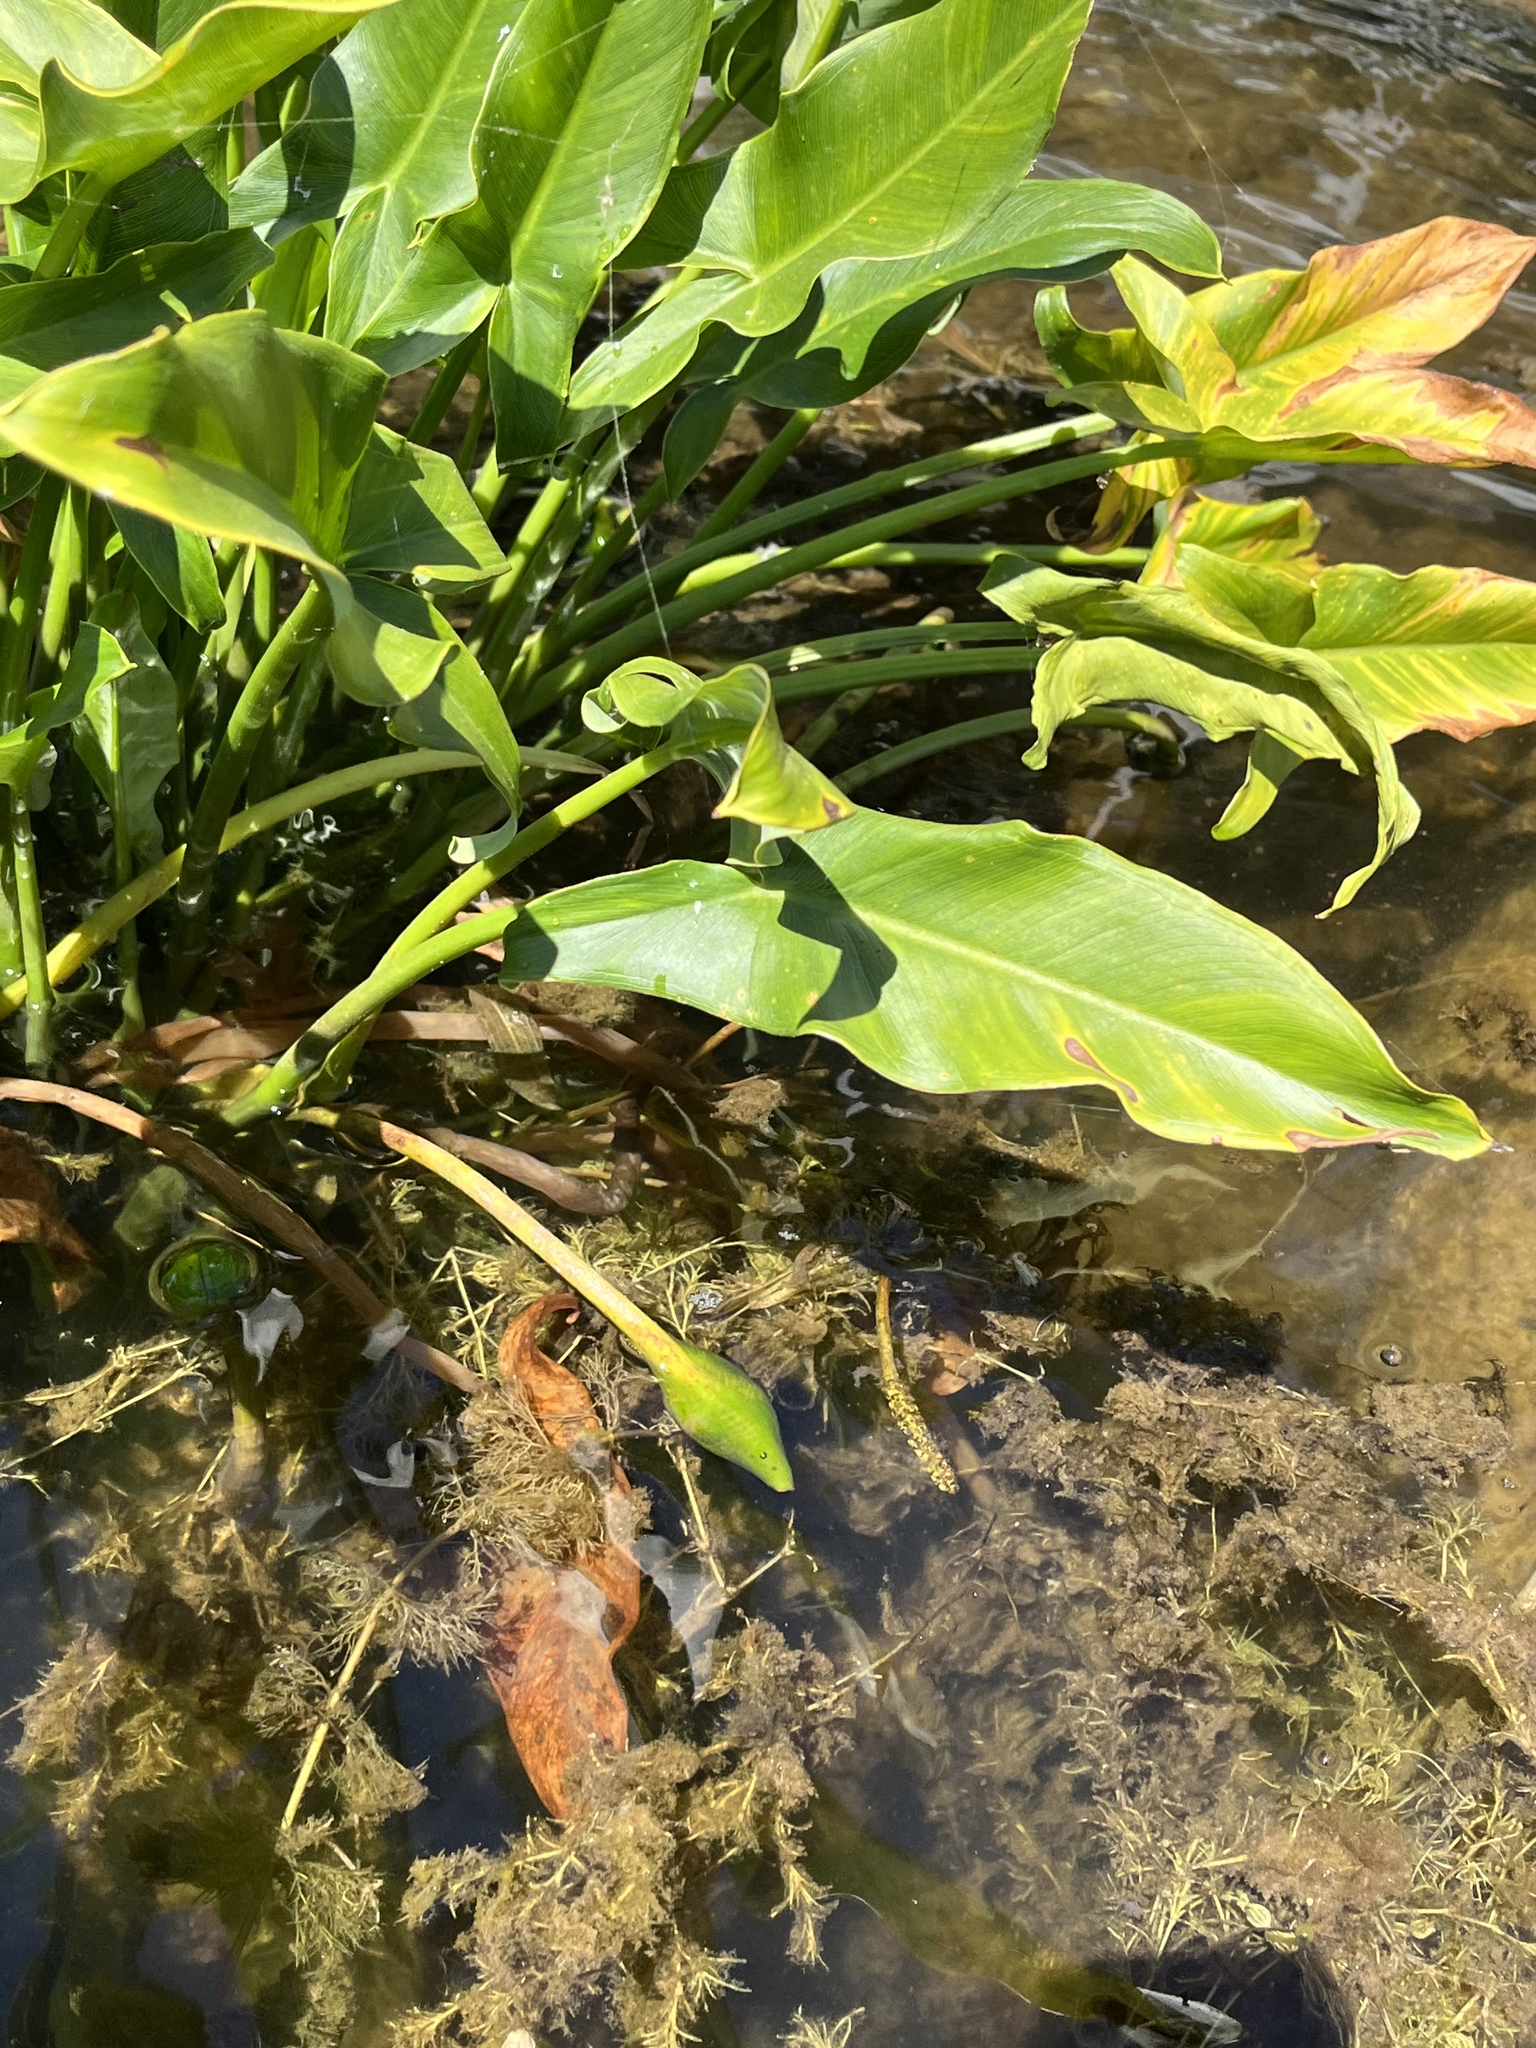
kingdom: Plantae
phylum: Tracheophyta
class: Liliopsida
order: Alismatales
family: Araceae
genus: Peltandra
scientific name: Peltandra virginica
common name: Arrow arum
